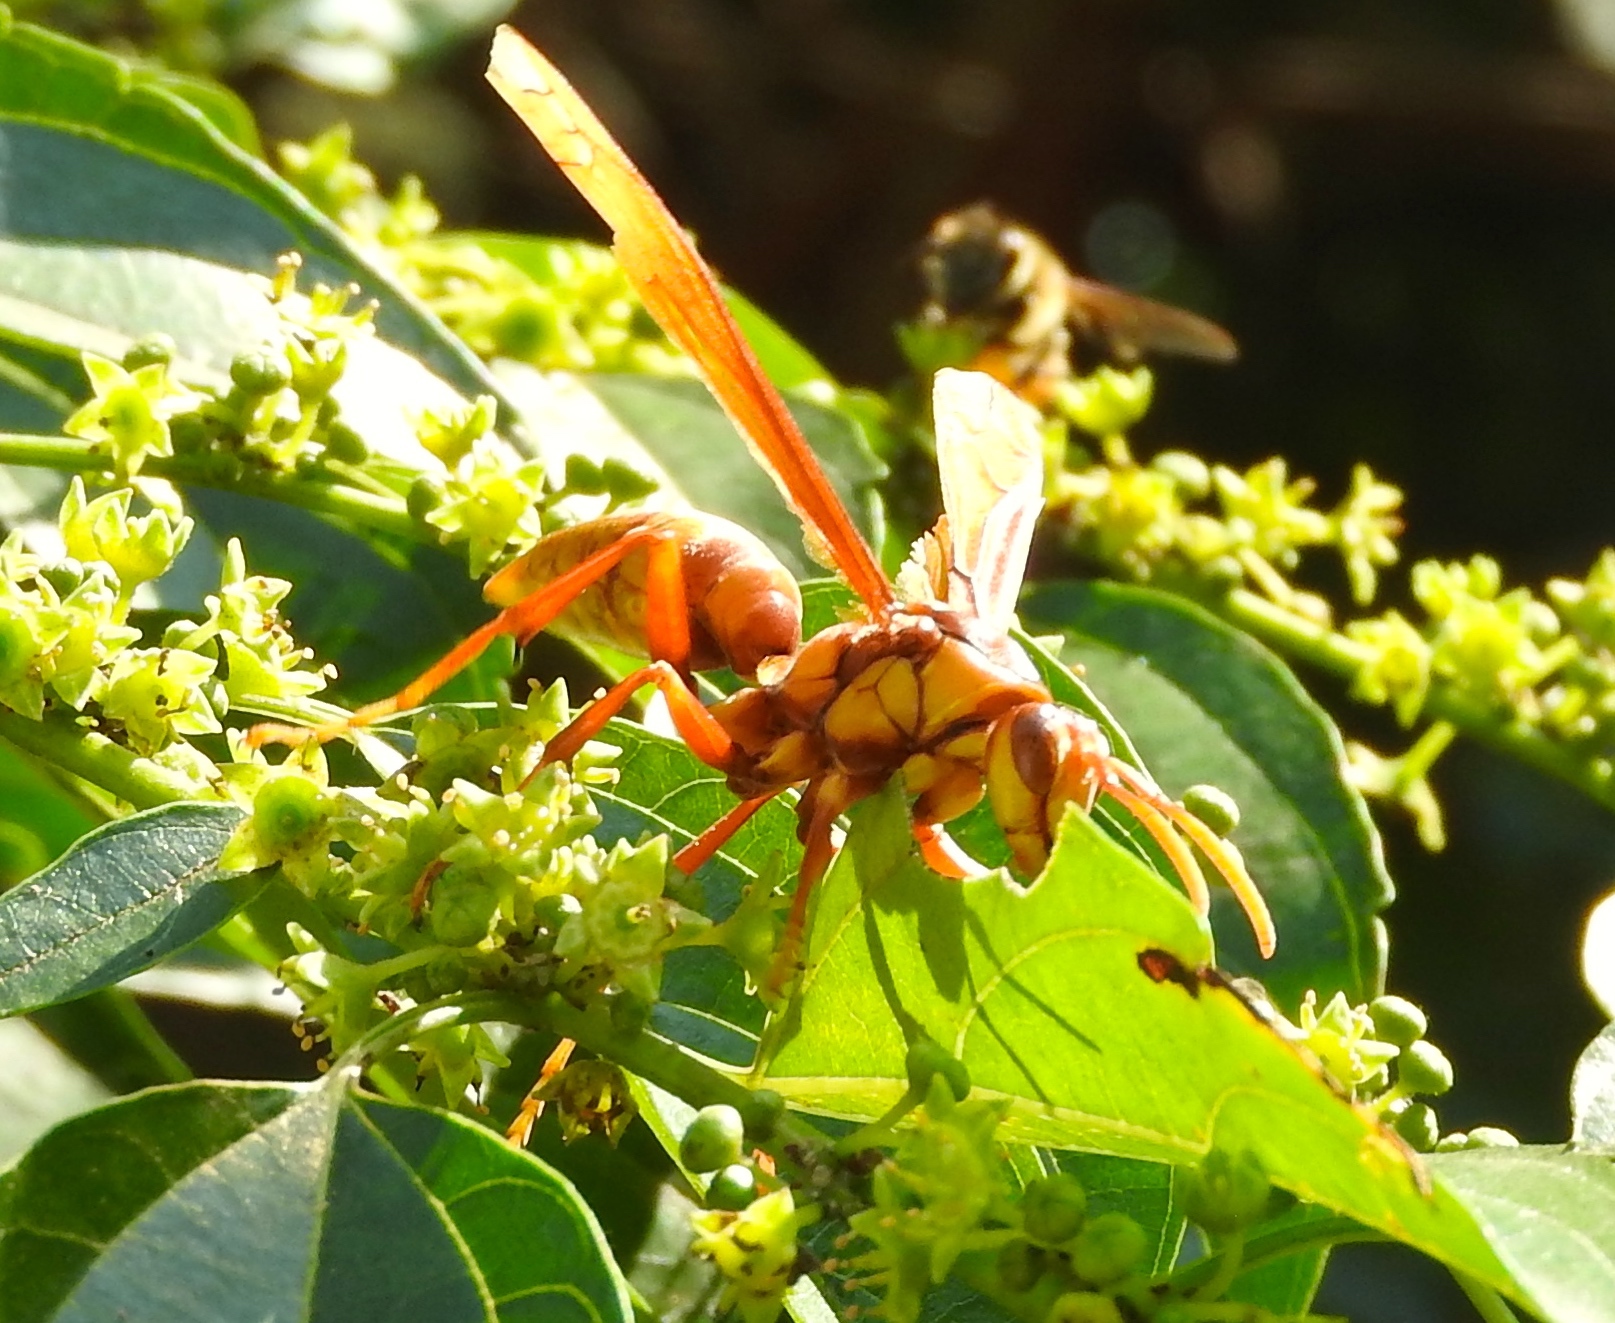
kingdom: Animalia
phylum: Arthropoda
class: Insecta
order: Hymenoptera
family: Eumenidae
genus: Polistes
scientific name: Polistes carnifex
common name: Paper wasp
